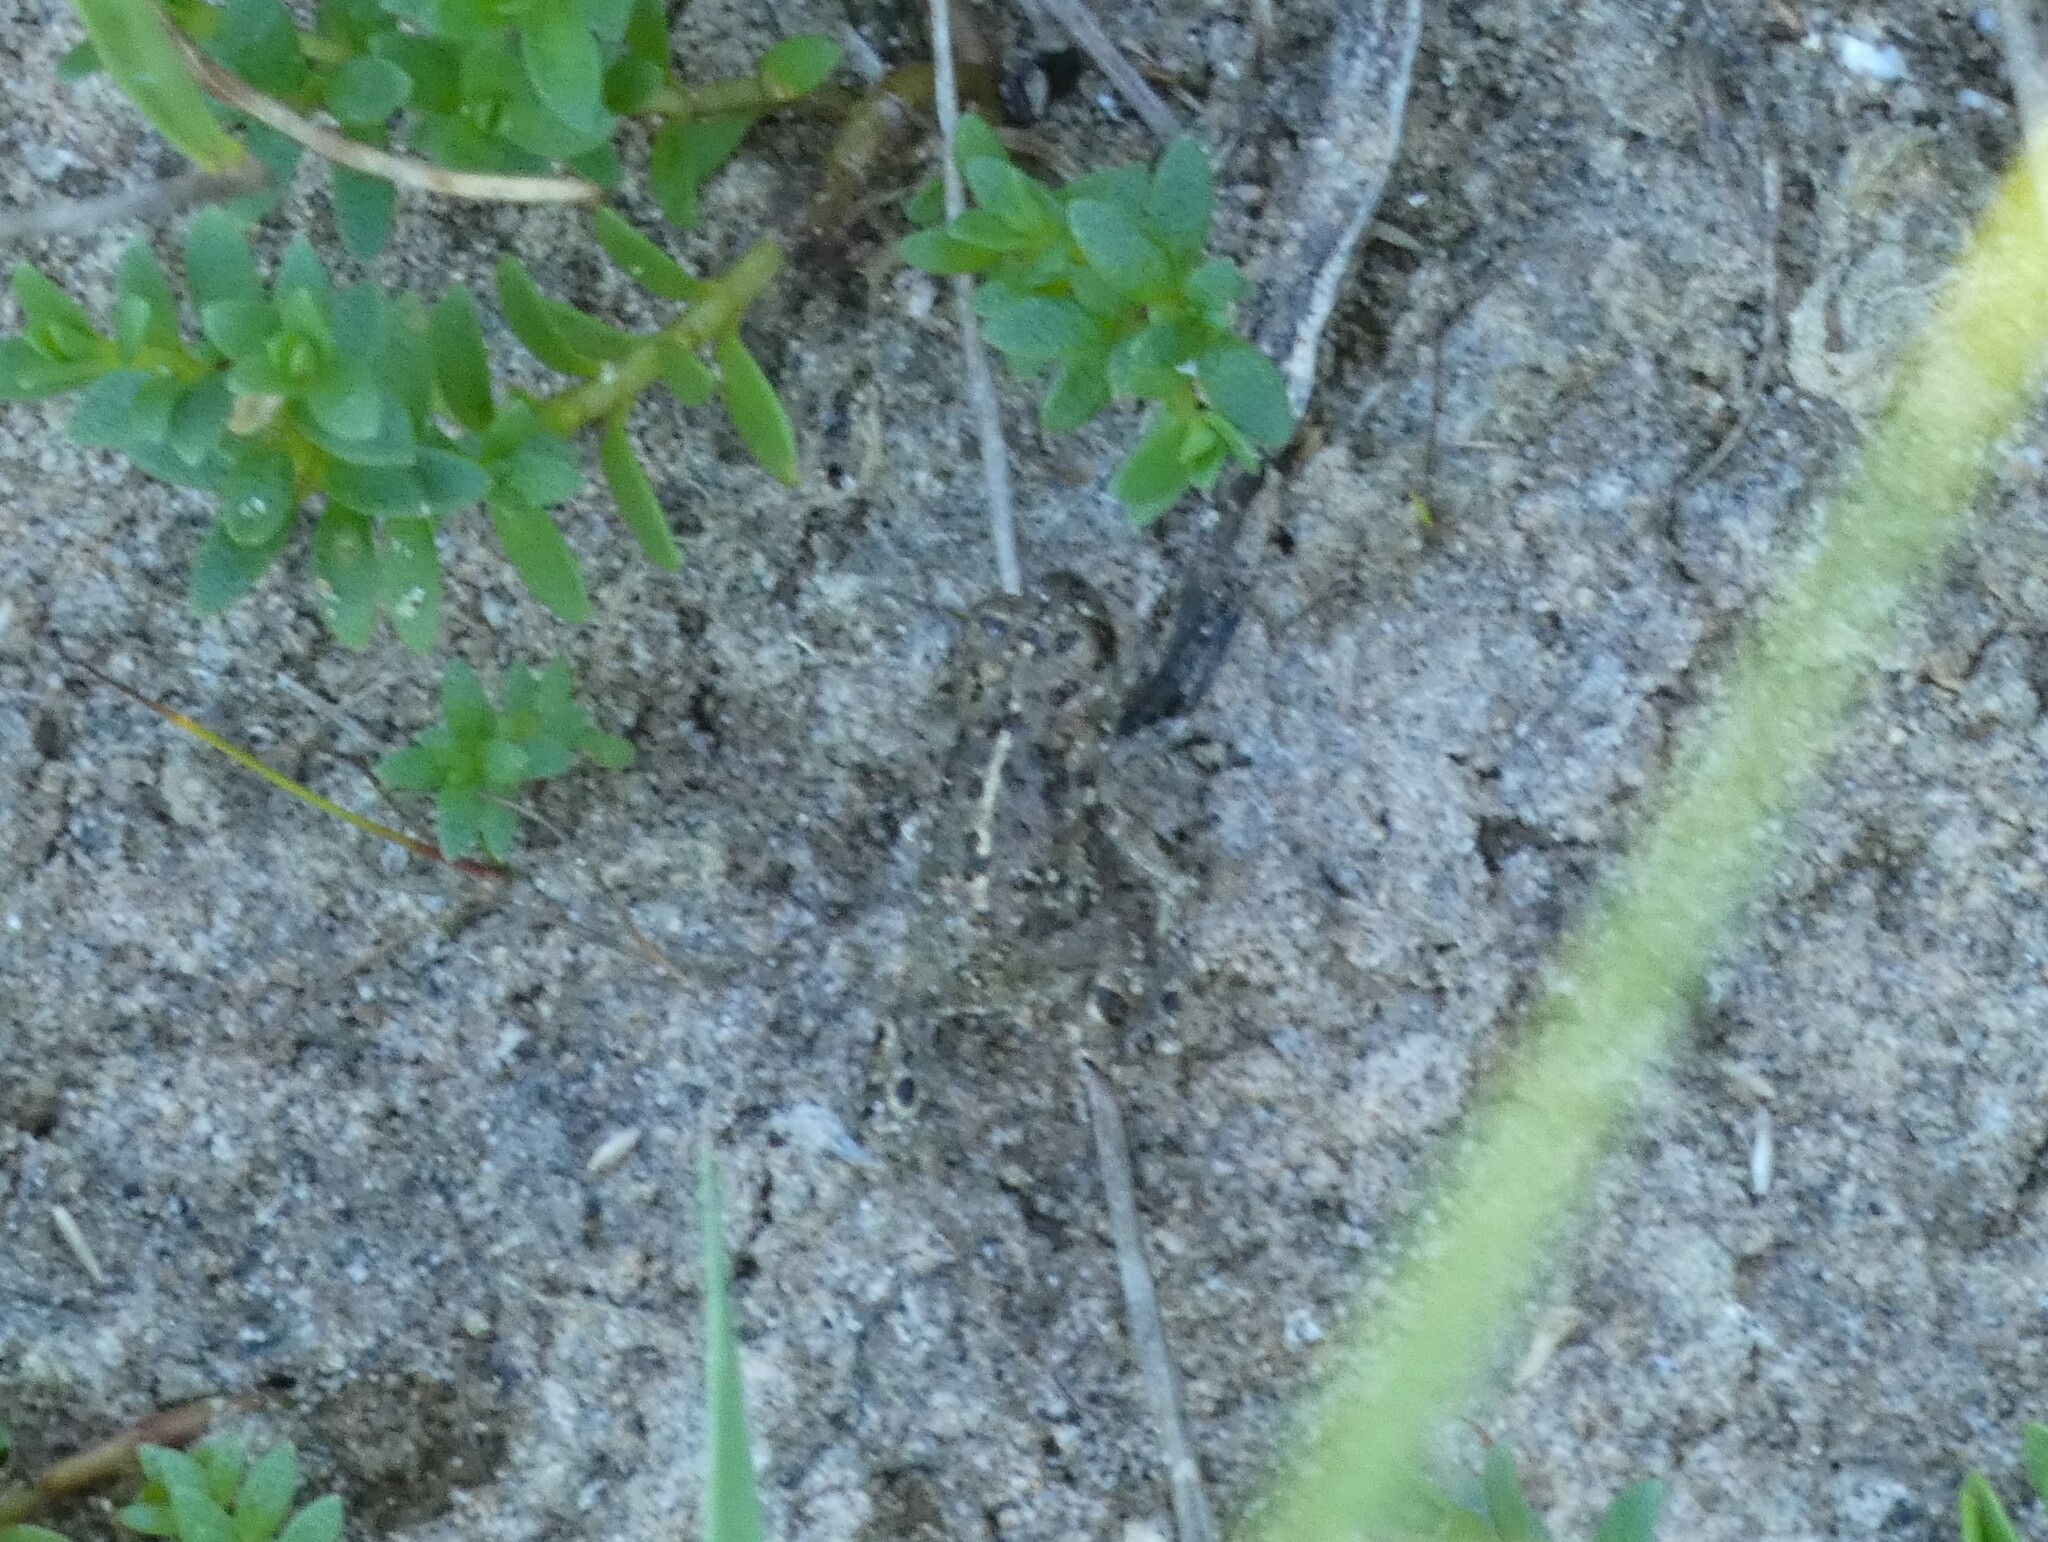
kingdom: Animalia
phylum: Chordata
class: Amphibia
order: Anura
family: Bufonidae
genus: Epidalea
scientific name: Epidalea calamita
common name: Natterjack toad
